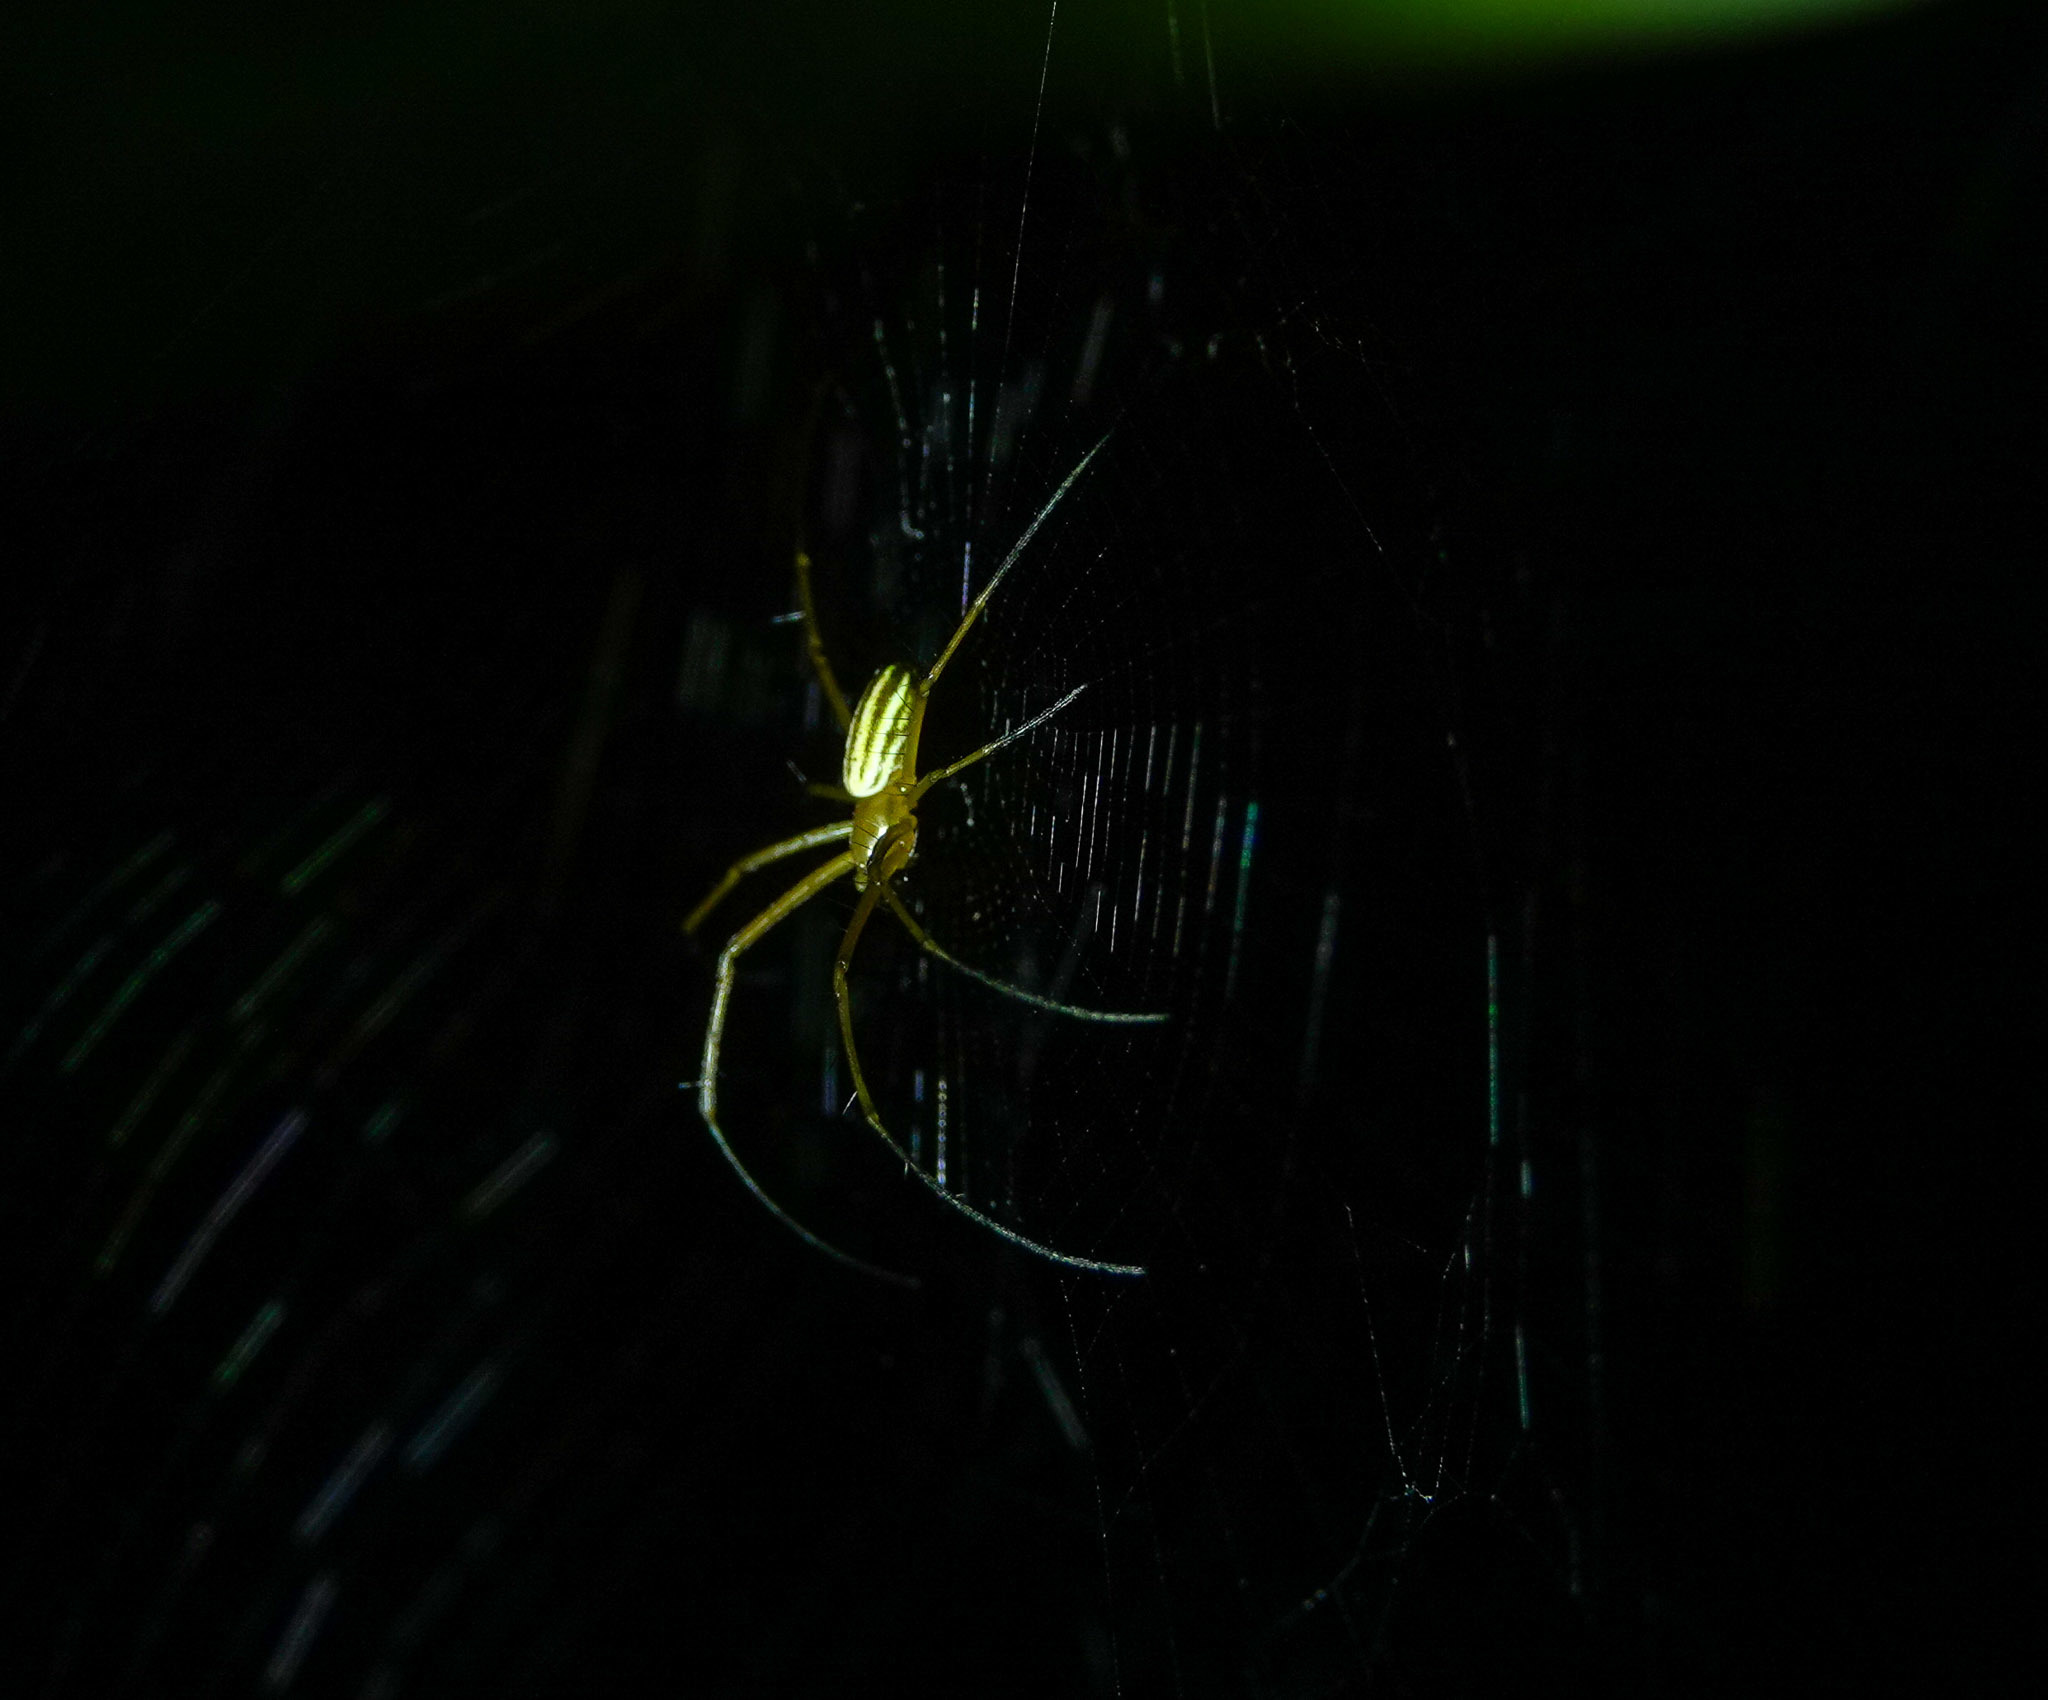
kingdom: Animalia
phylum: Arthropoda
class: Arachnida
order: Araneae
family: Araneidae
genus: Nephila
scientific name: Nephila pilipes
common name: Giant golden orb weaver
